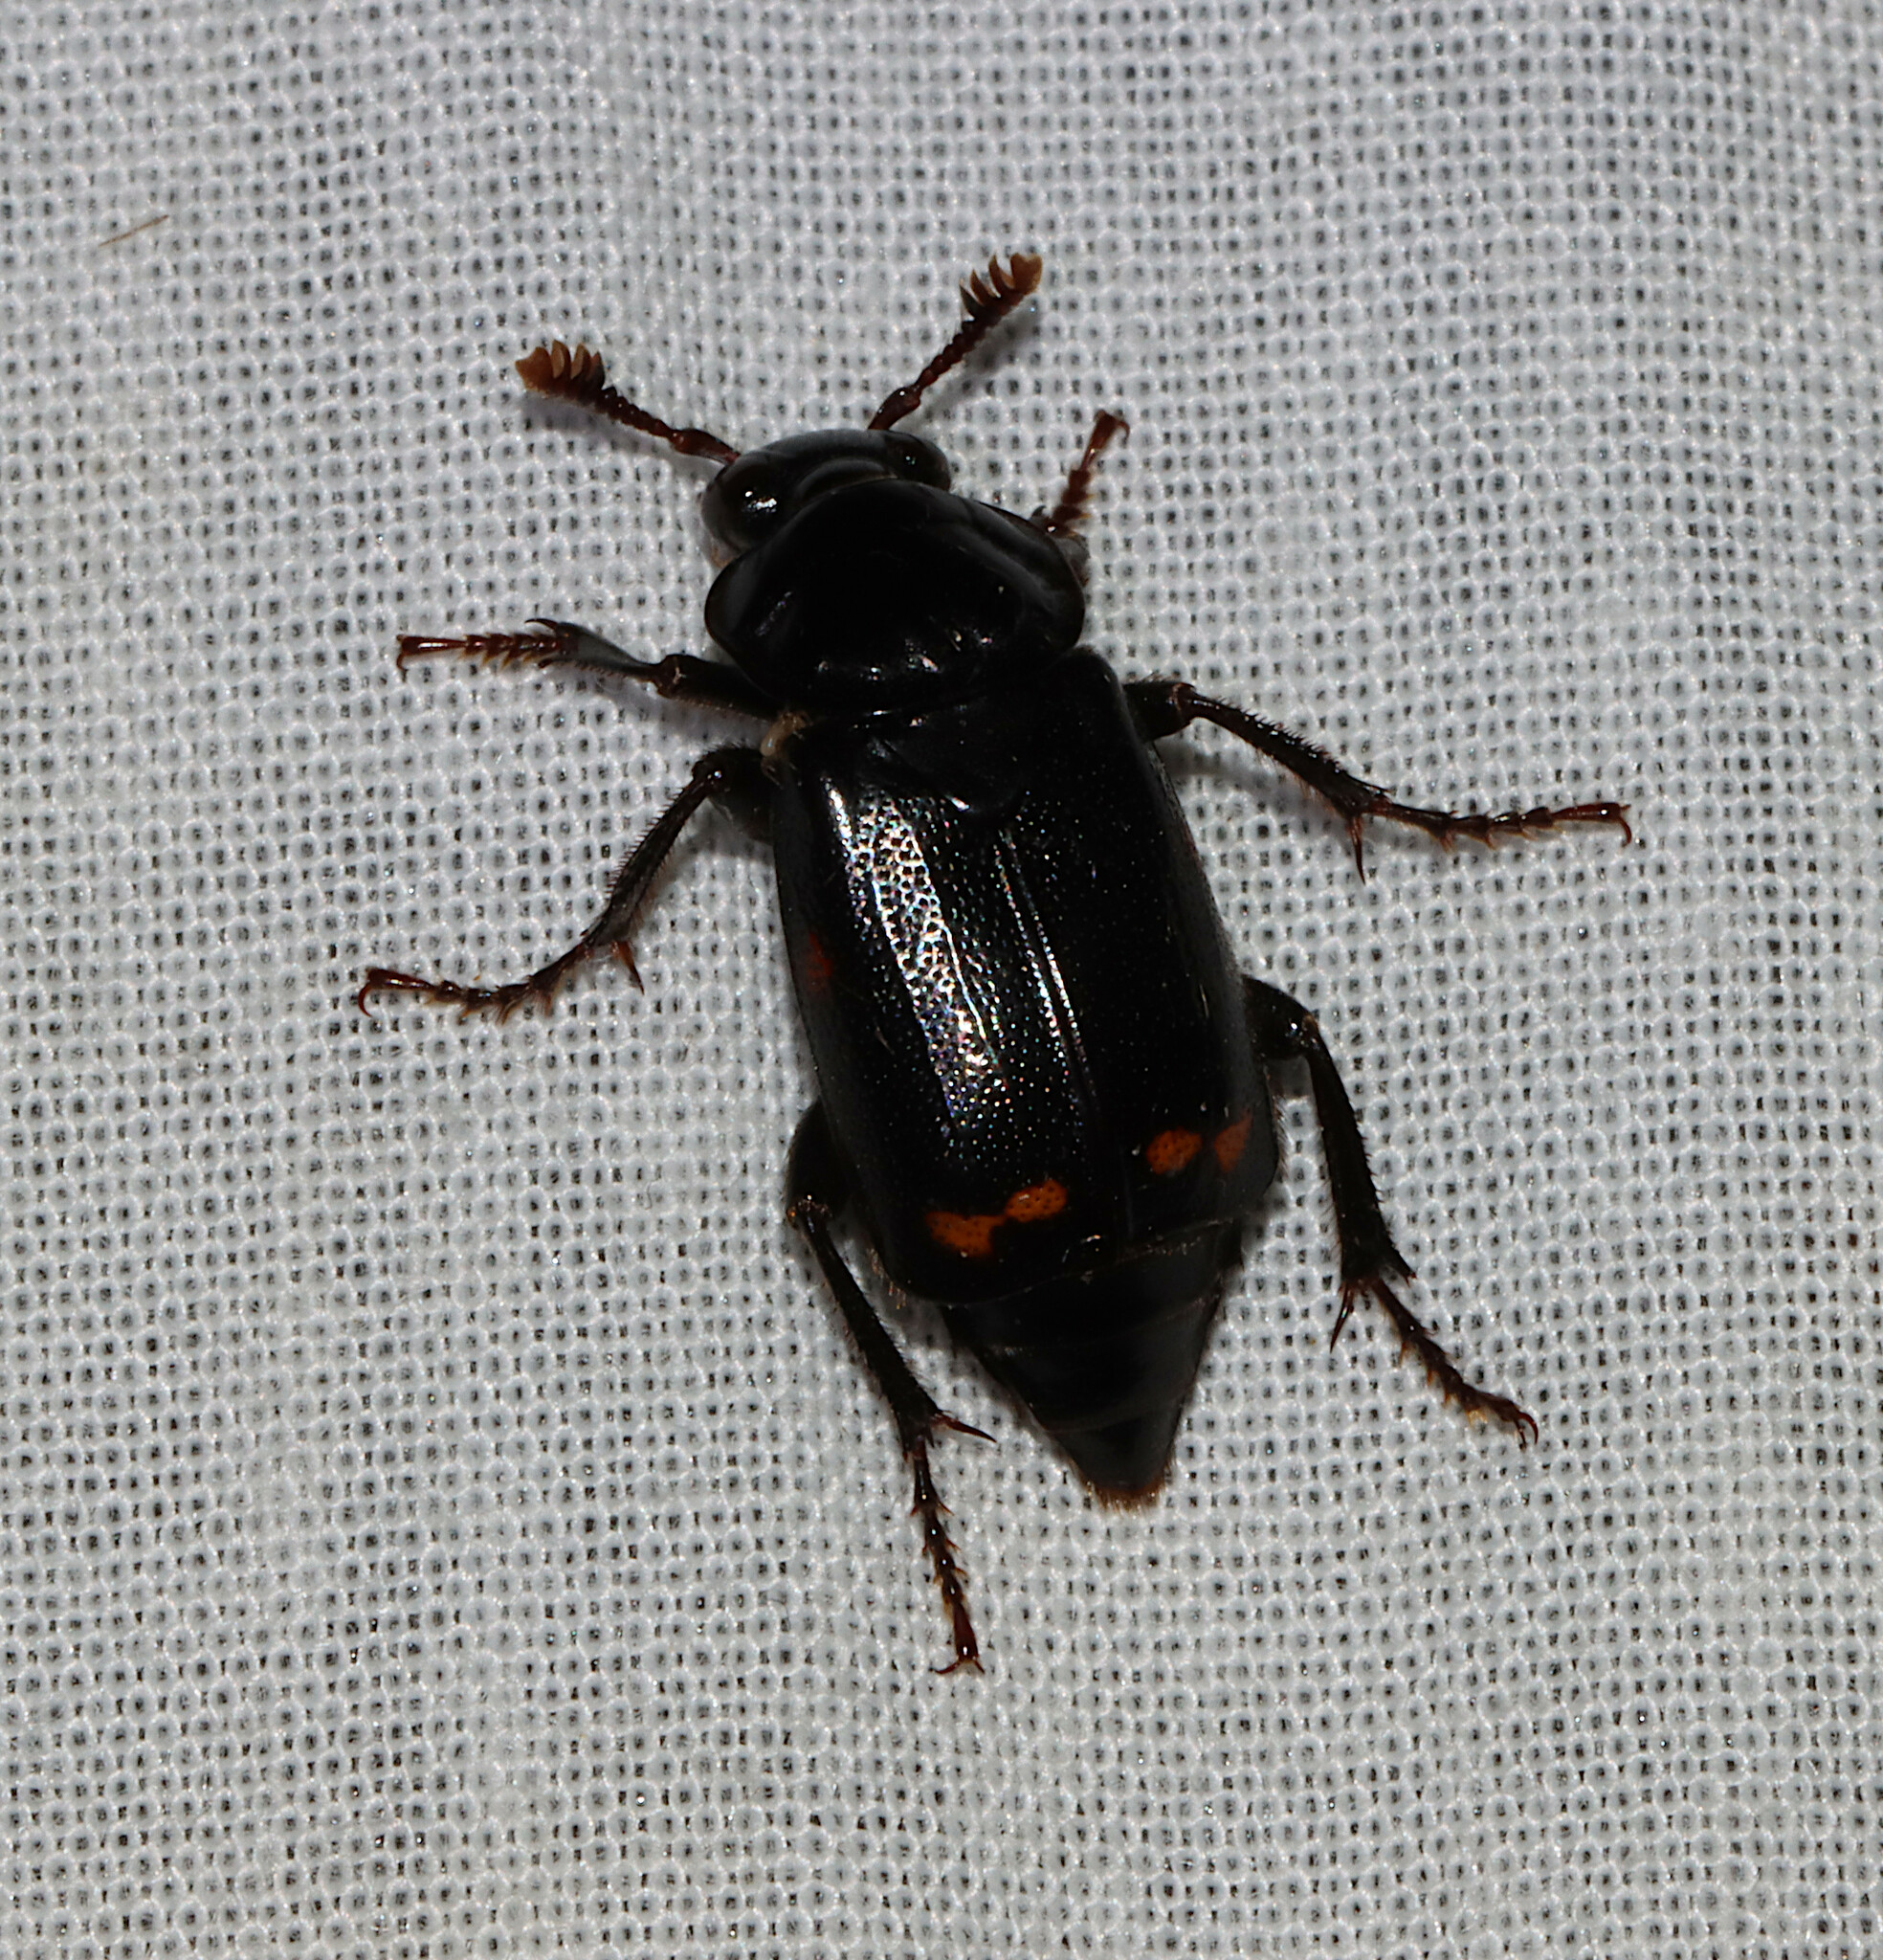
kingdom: Animalia
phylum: Arthropoda
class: Insecta
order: Coleoptera
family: Staphylinidae
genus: Nicrophorus
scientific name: Nicrophorus pustulatus
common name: Pustulated carrion beetle
